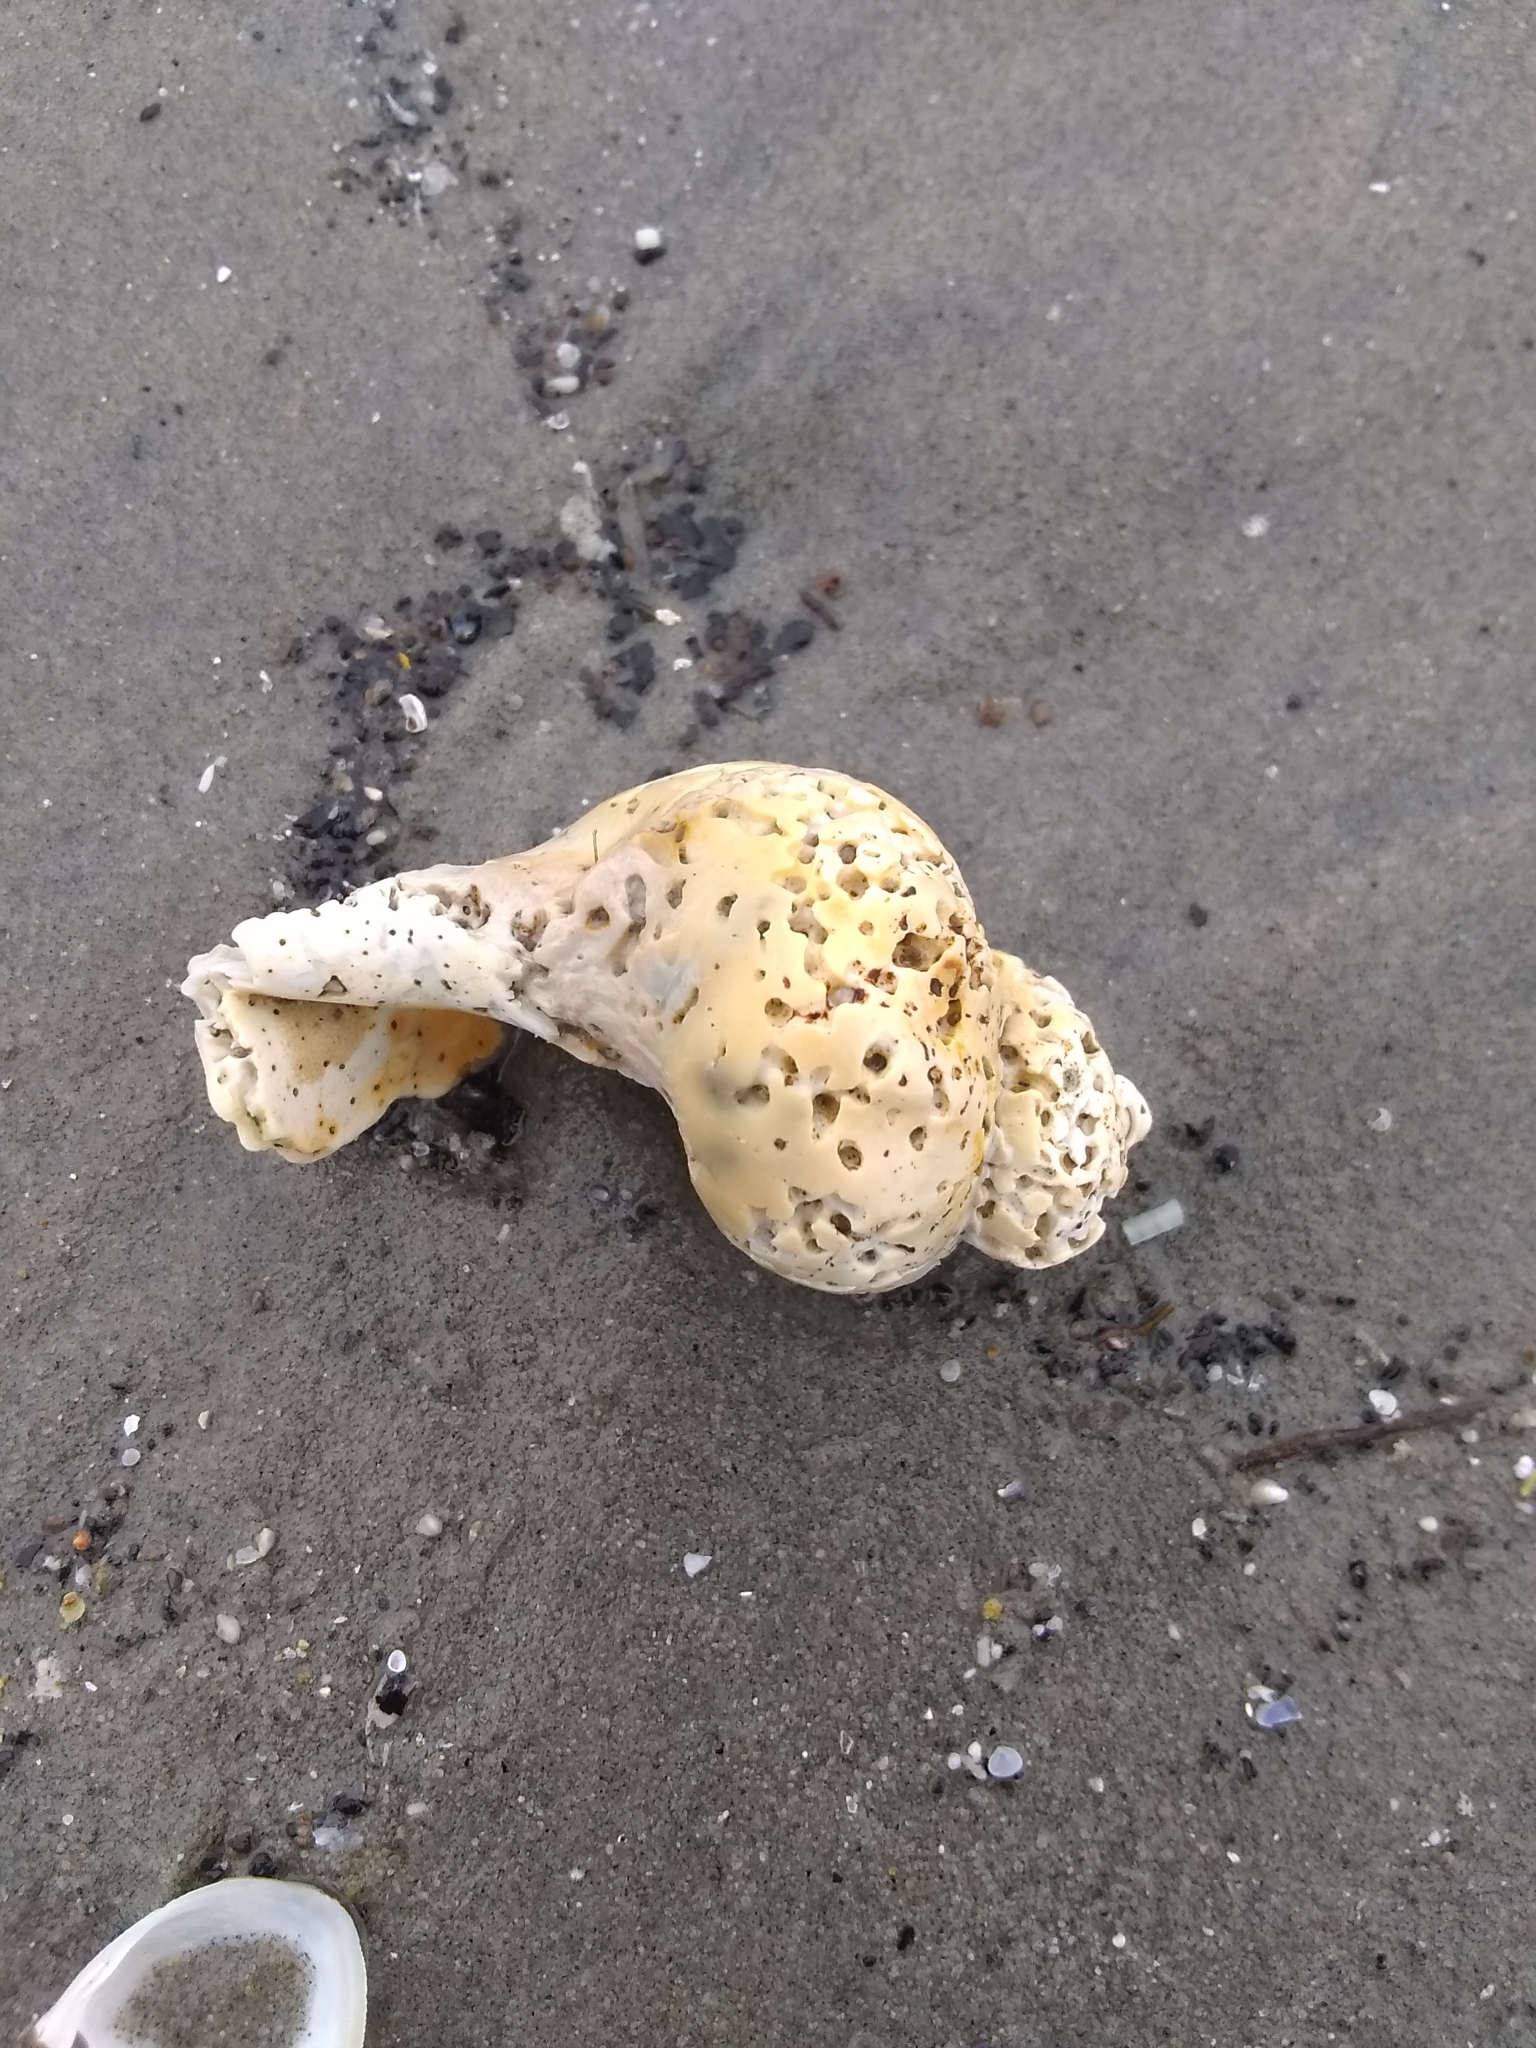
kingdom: Animalia
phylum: Mollusca
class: Gastropoda
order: Neogastropoda
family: Buccinidae
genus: Buccinum
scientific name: Buccinum undatum
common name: Common whelk
